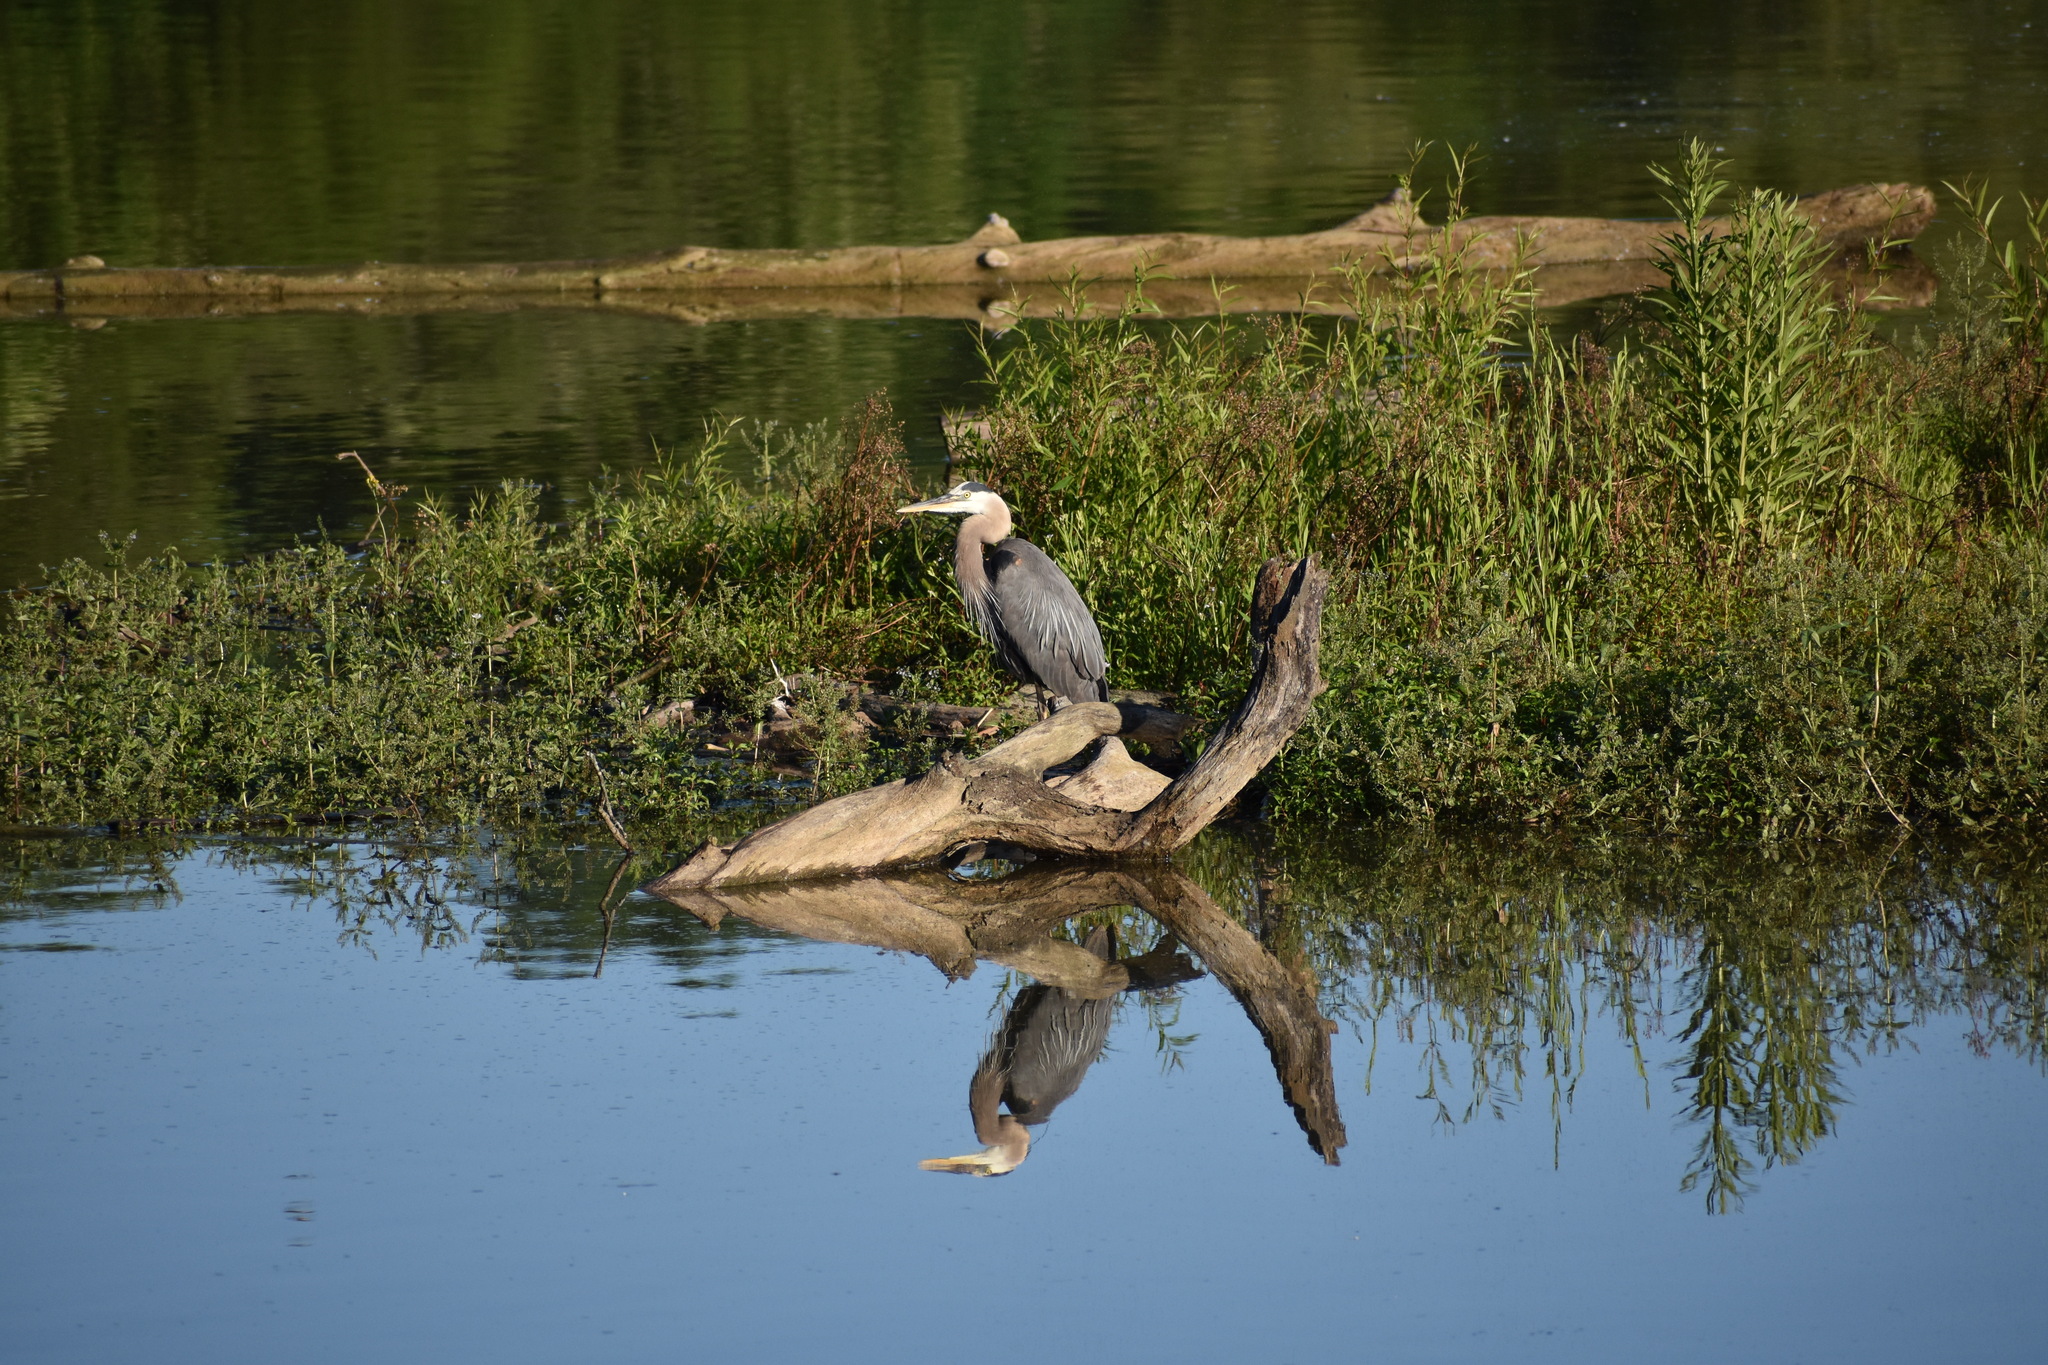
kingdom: Animalia
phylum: Chordata
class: Aves
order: Pelecaniformes
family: Ardeidae
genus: Ardea
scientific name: Ardea herodias
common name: Great blue heron
